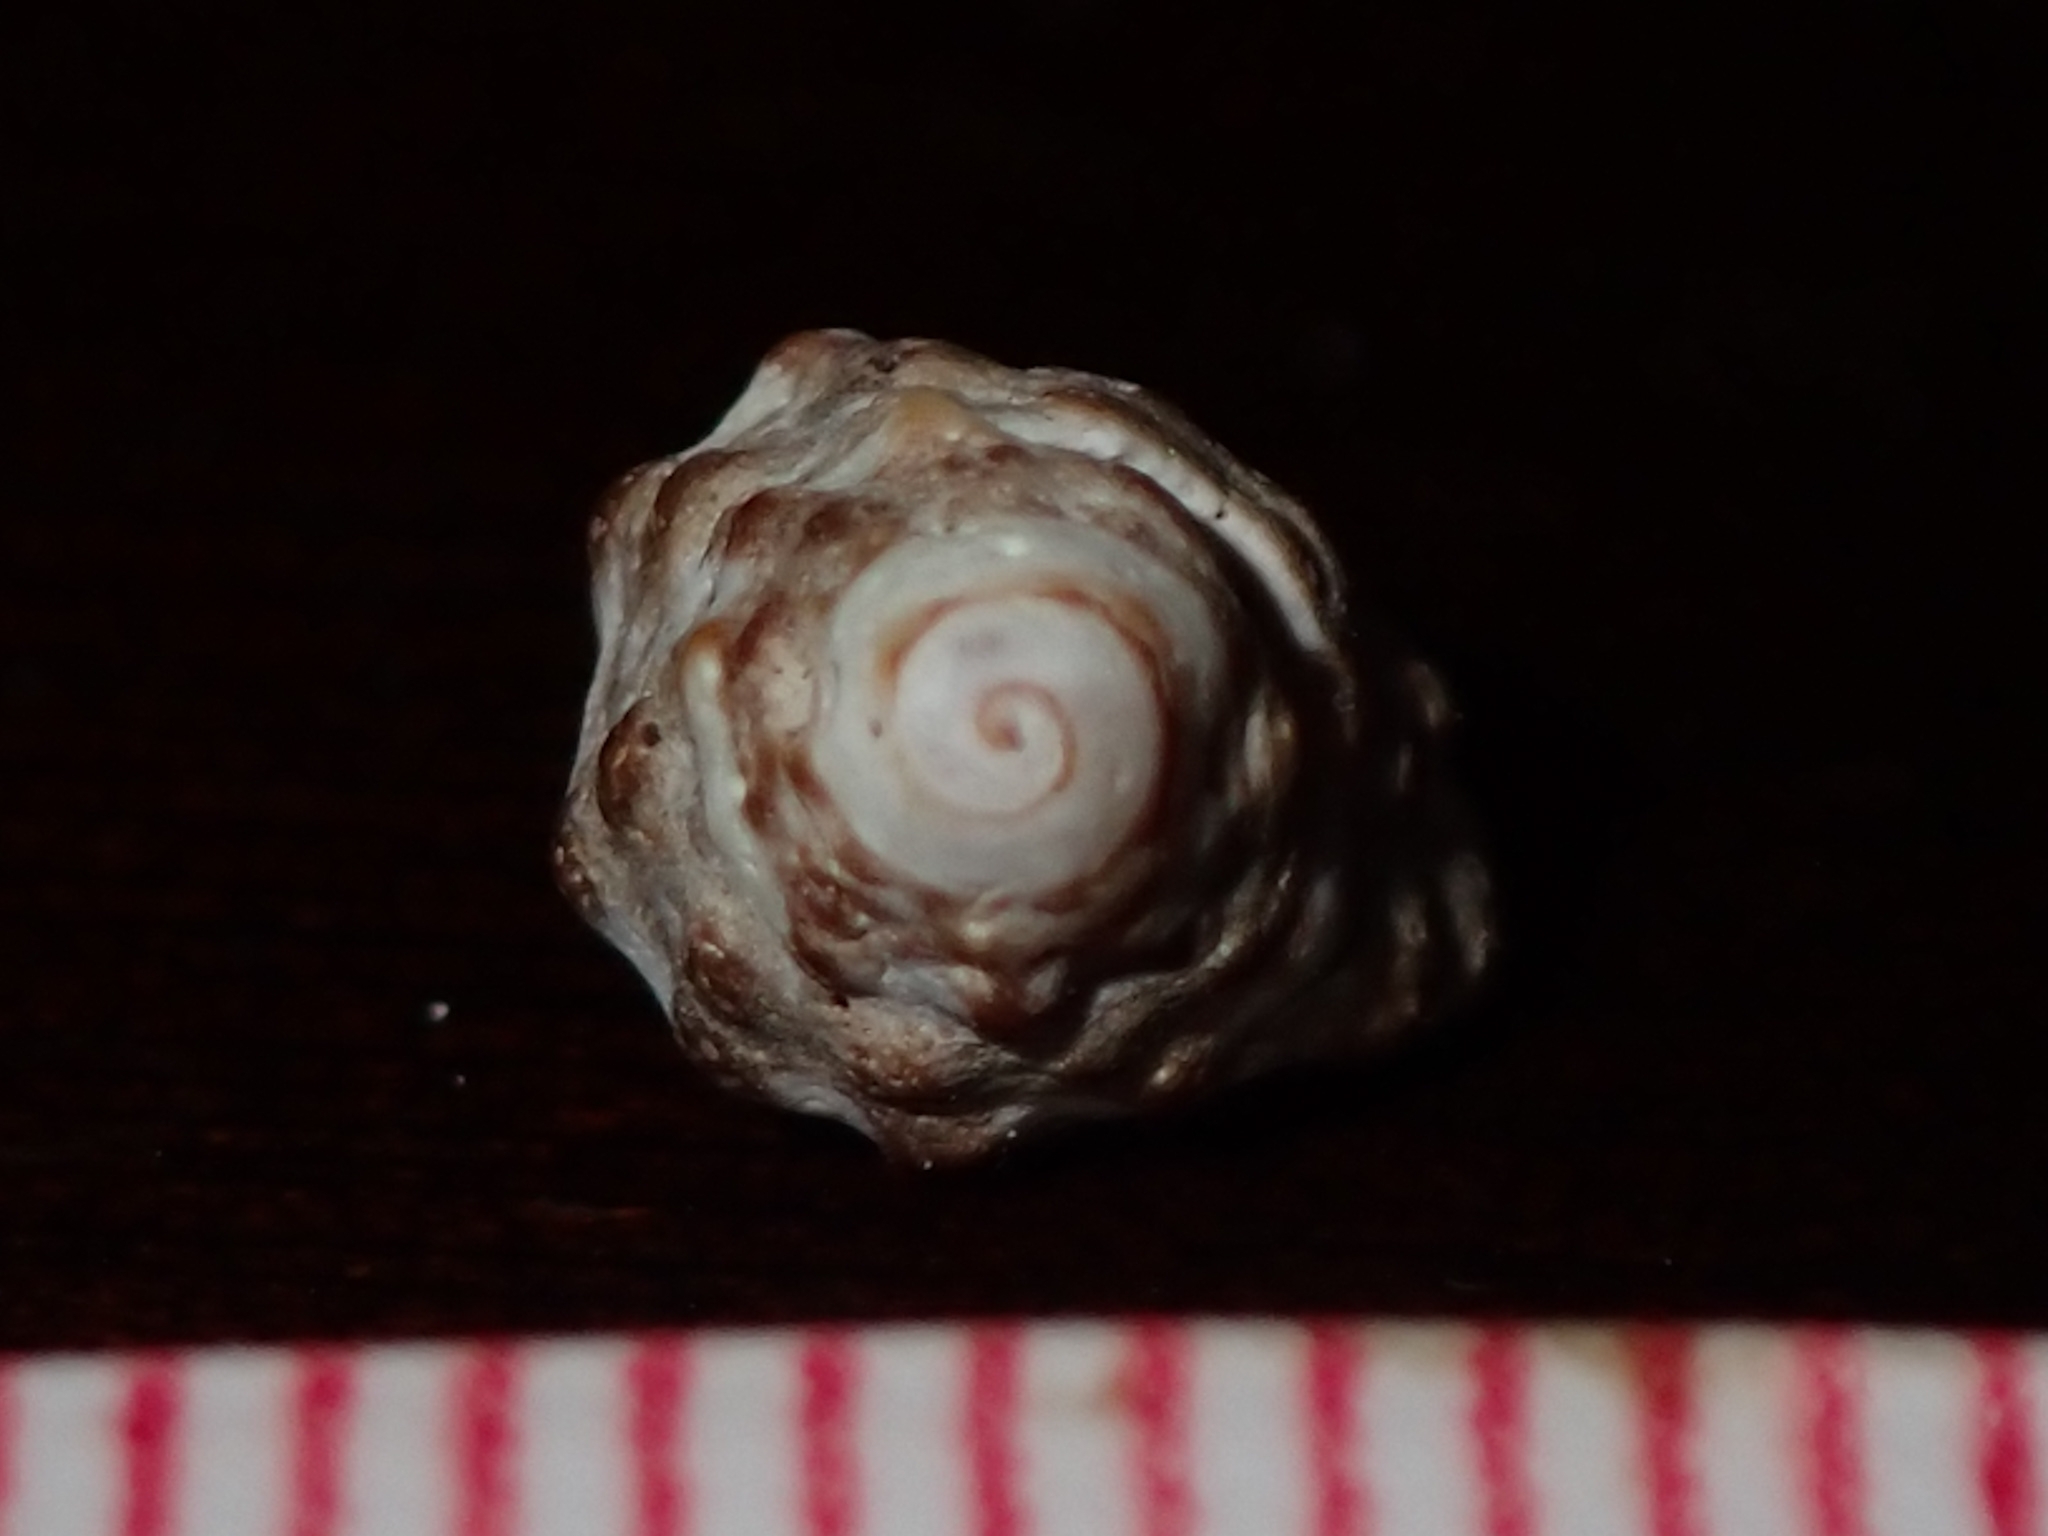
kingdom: Animalia
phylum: Mollusca
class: Gastropoda
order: Neogastropoda
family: Muricidae
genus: Claremontiella
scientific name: Claremontiella nodulosa
